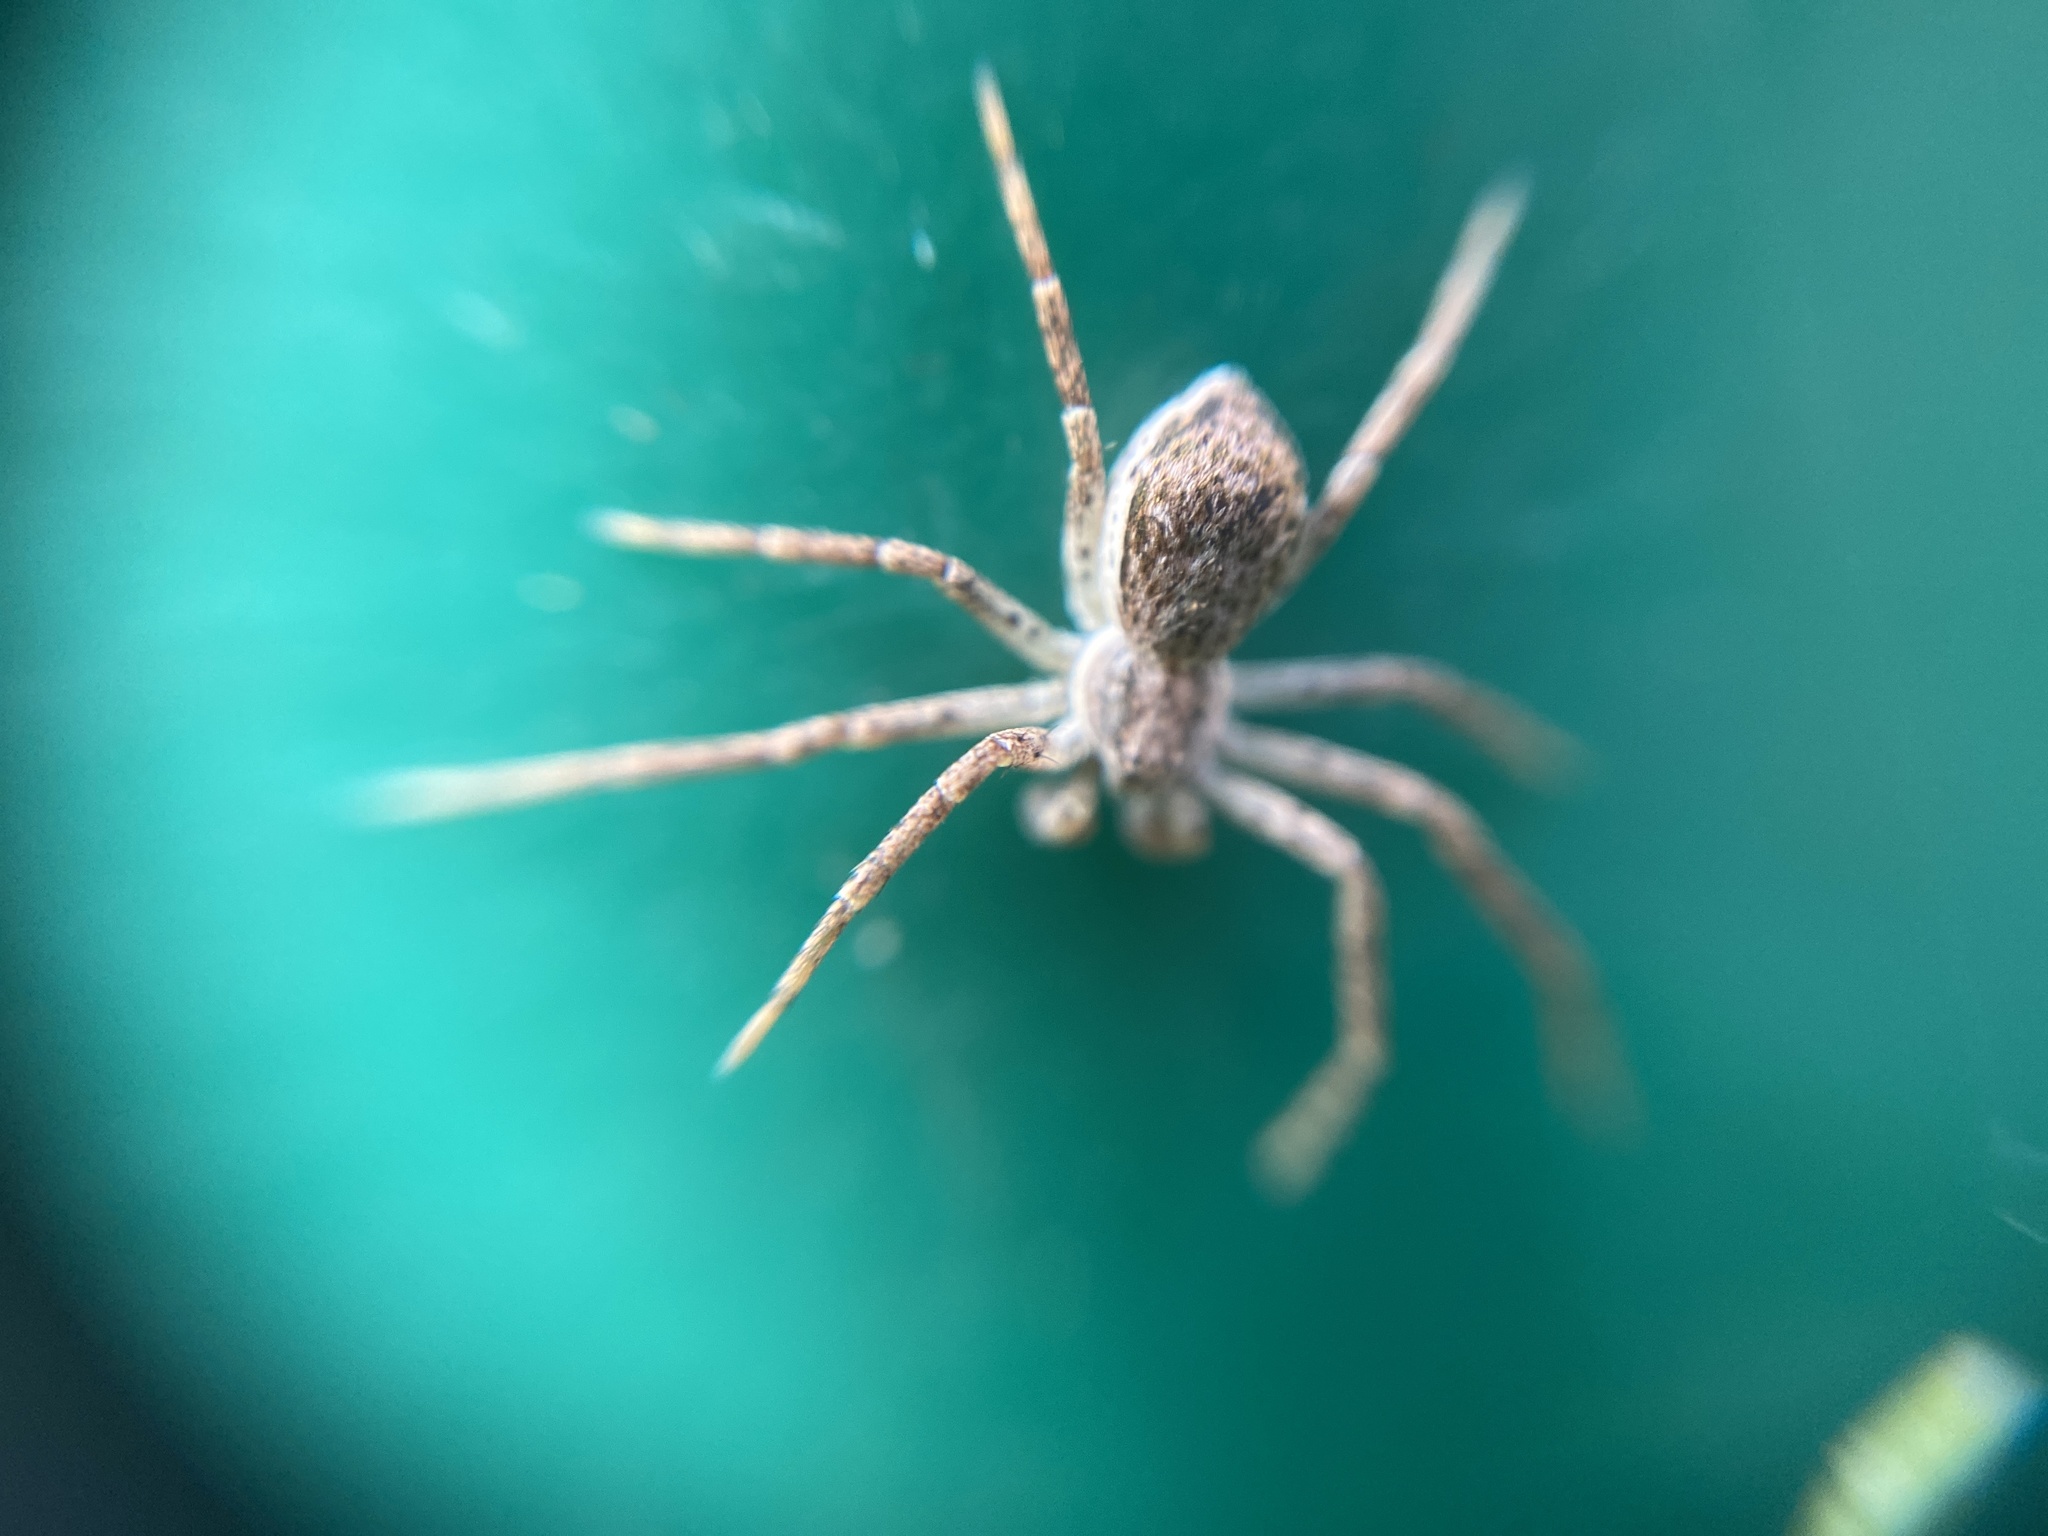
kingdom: Animalia
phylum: Arthropoda
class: Arachnida
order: Araneae
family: Philodromidae
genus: Philodromus
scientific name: Philodromus dispar
